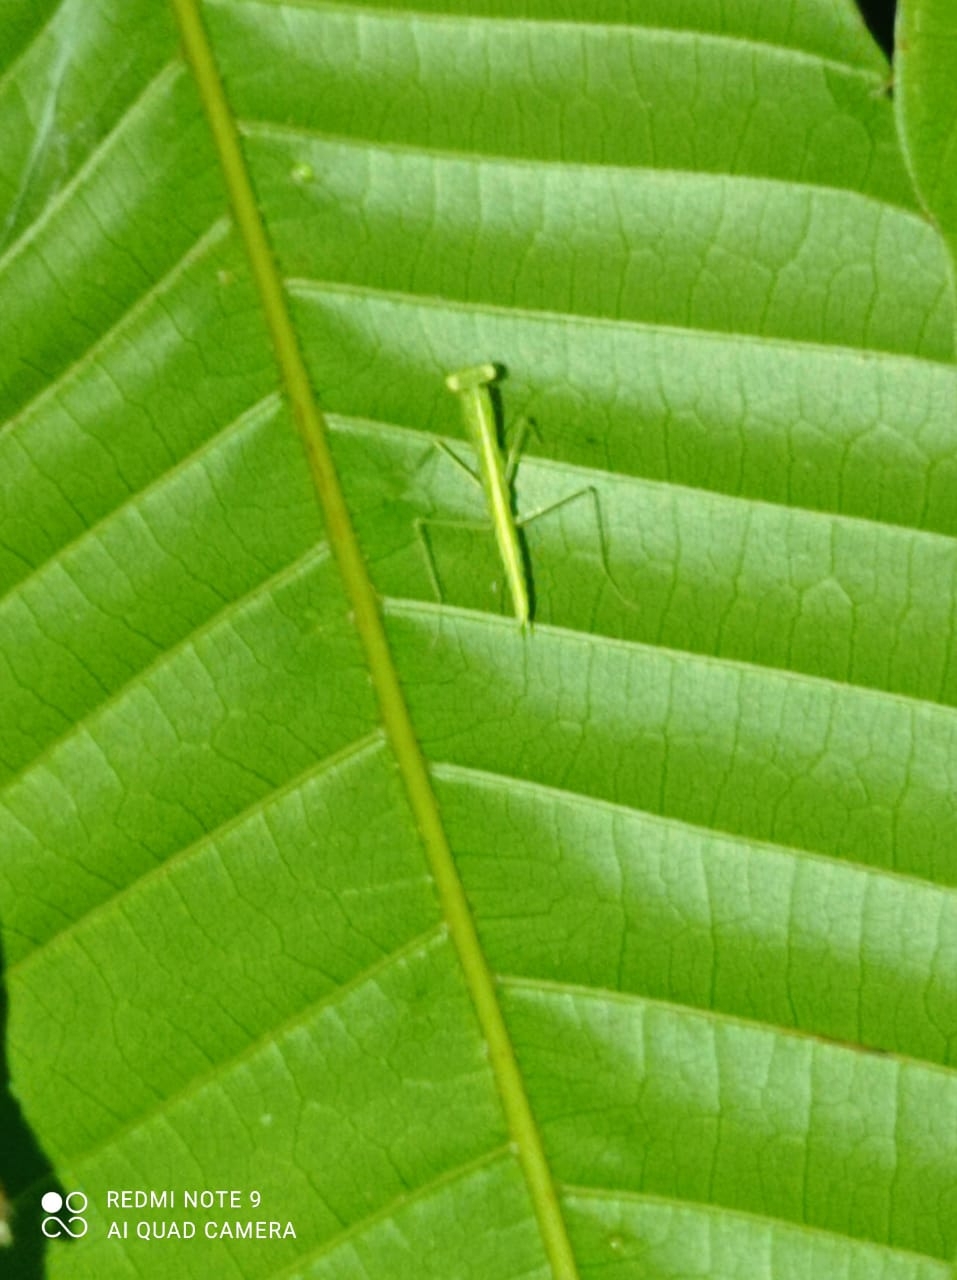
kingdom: Animalia
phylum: Arthropoda
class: Insecta
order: Mantodea
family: Nanomantidae
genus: Tropidomantis
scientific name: Tropidomantis tenera
